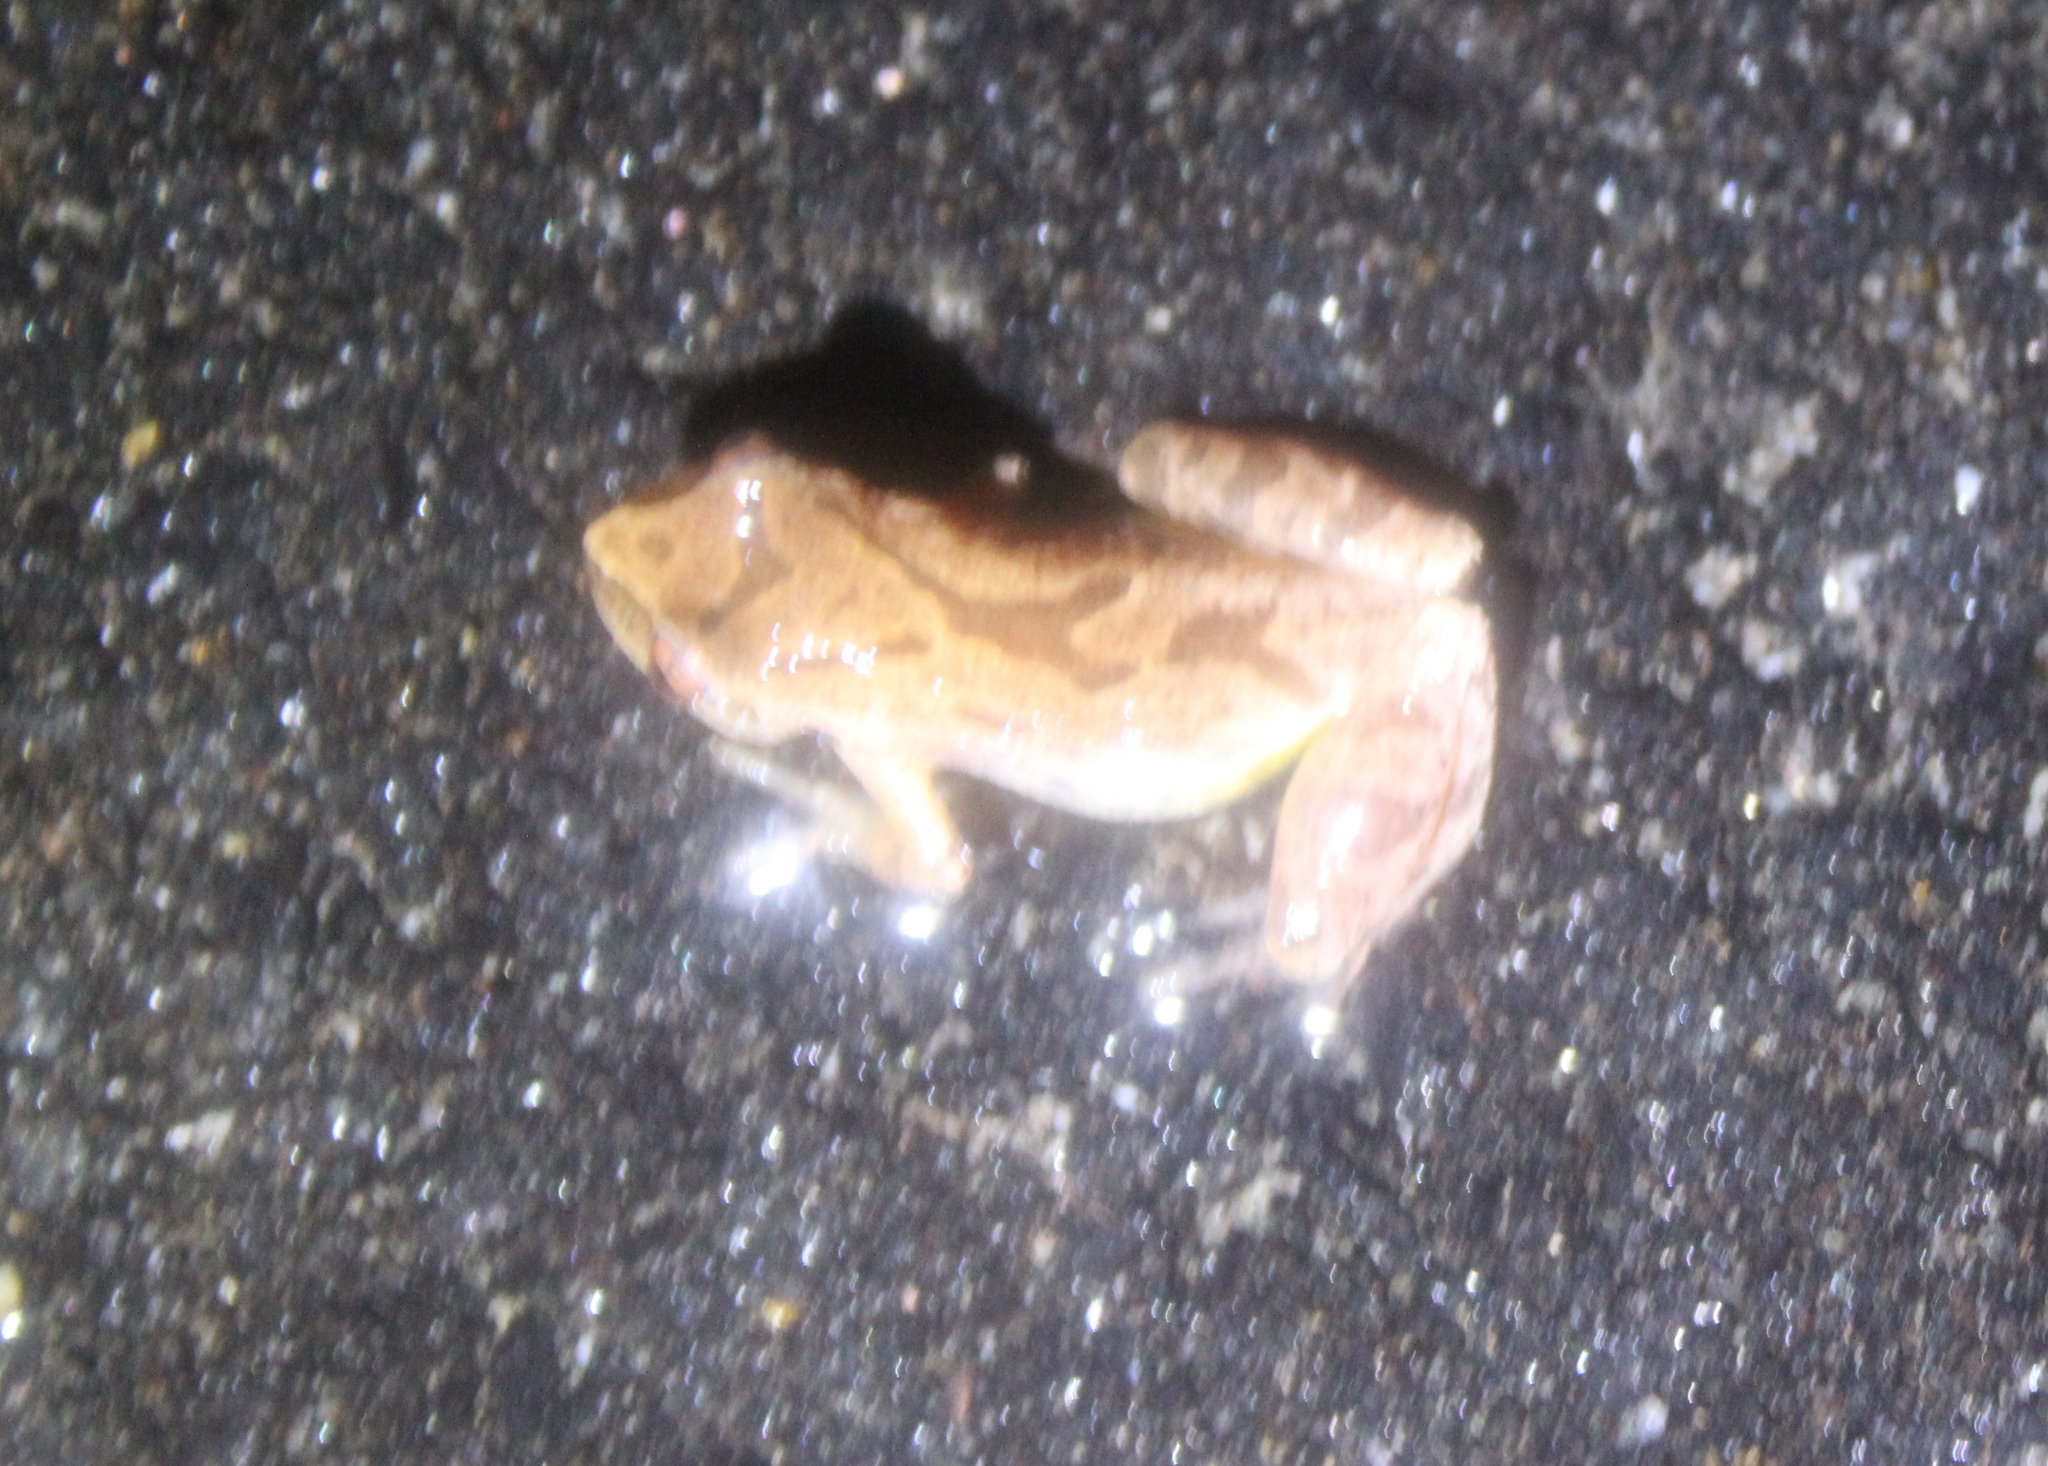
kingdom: Animalia
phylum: Chordata
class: Amphibia
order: Anura
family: Hylidae
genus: Pseudacris
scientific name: Pseudacris crucifer
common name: Spring peeper
